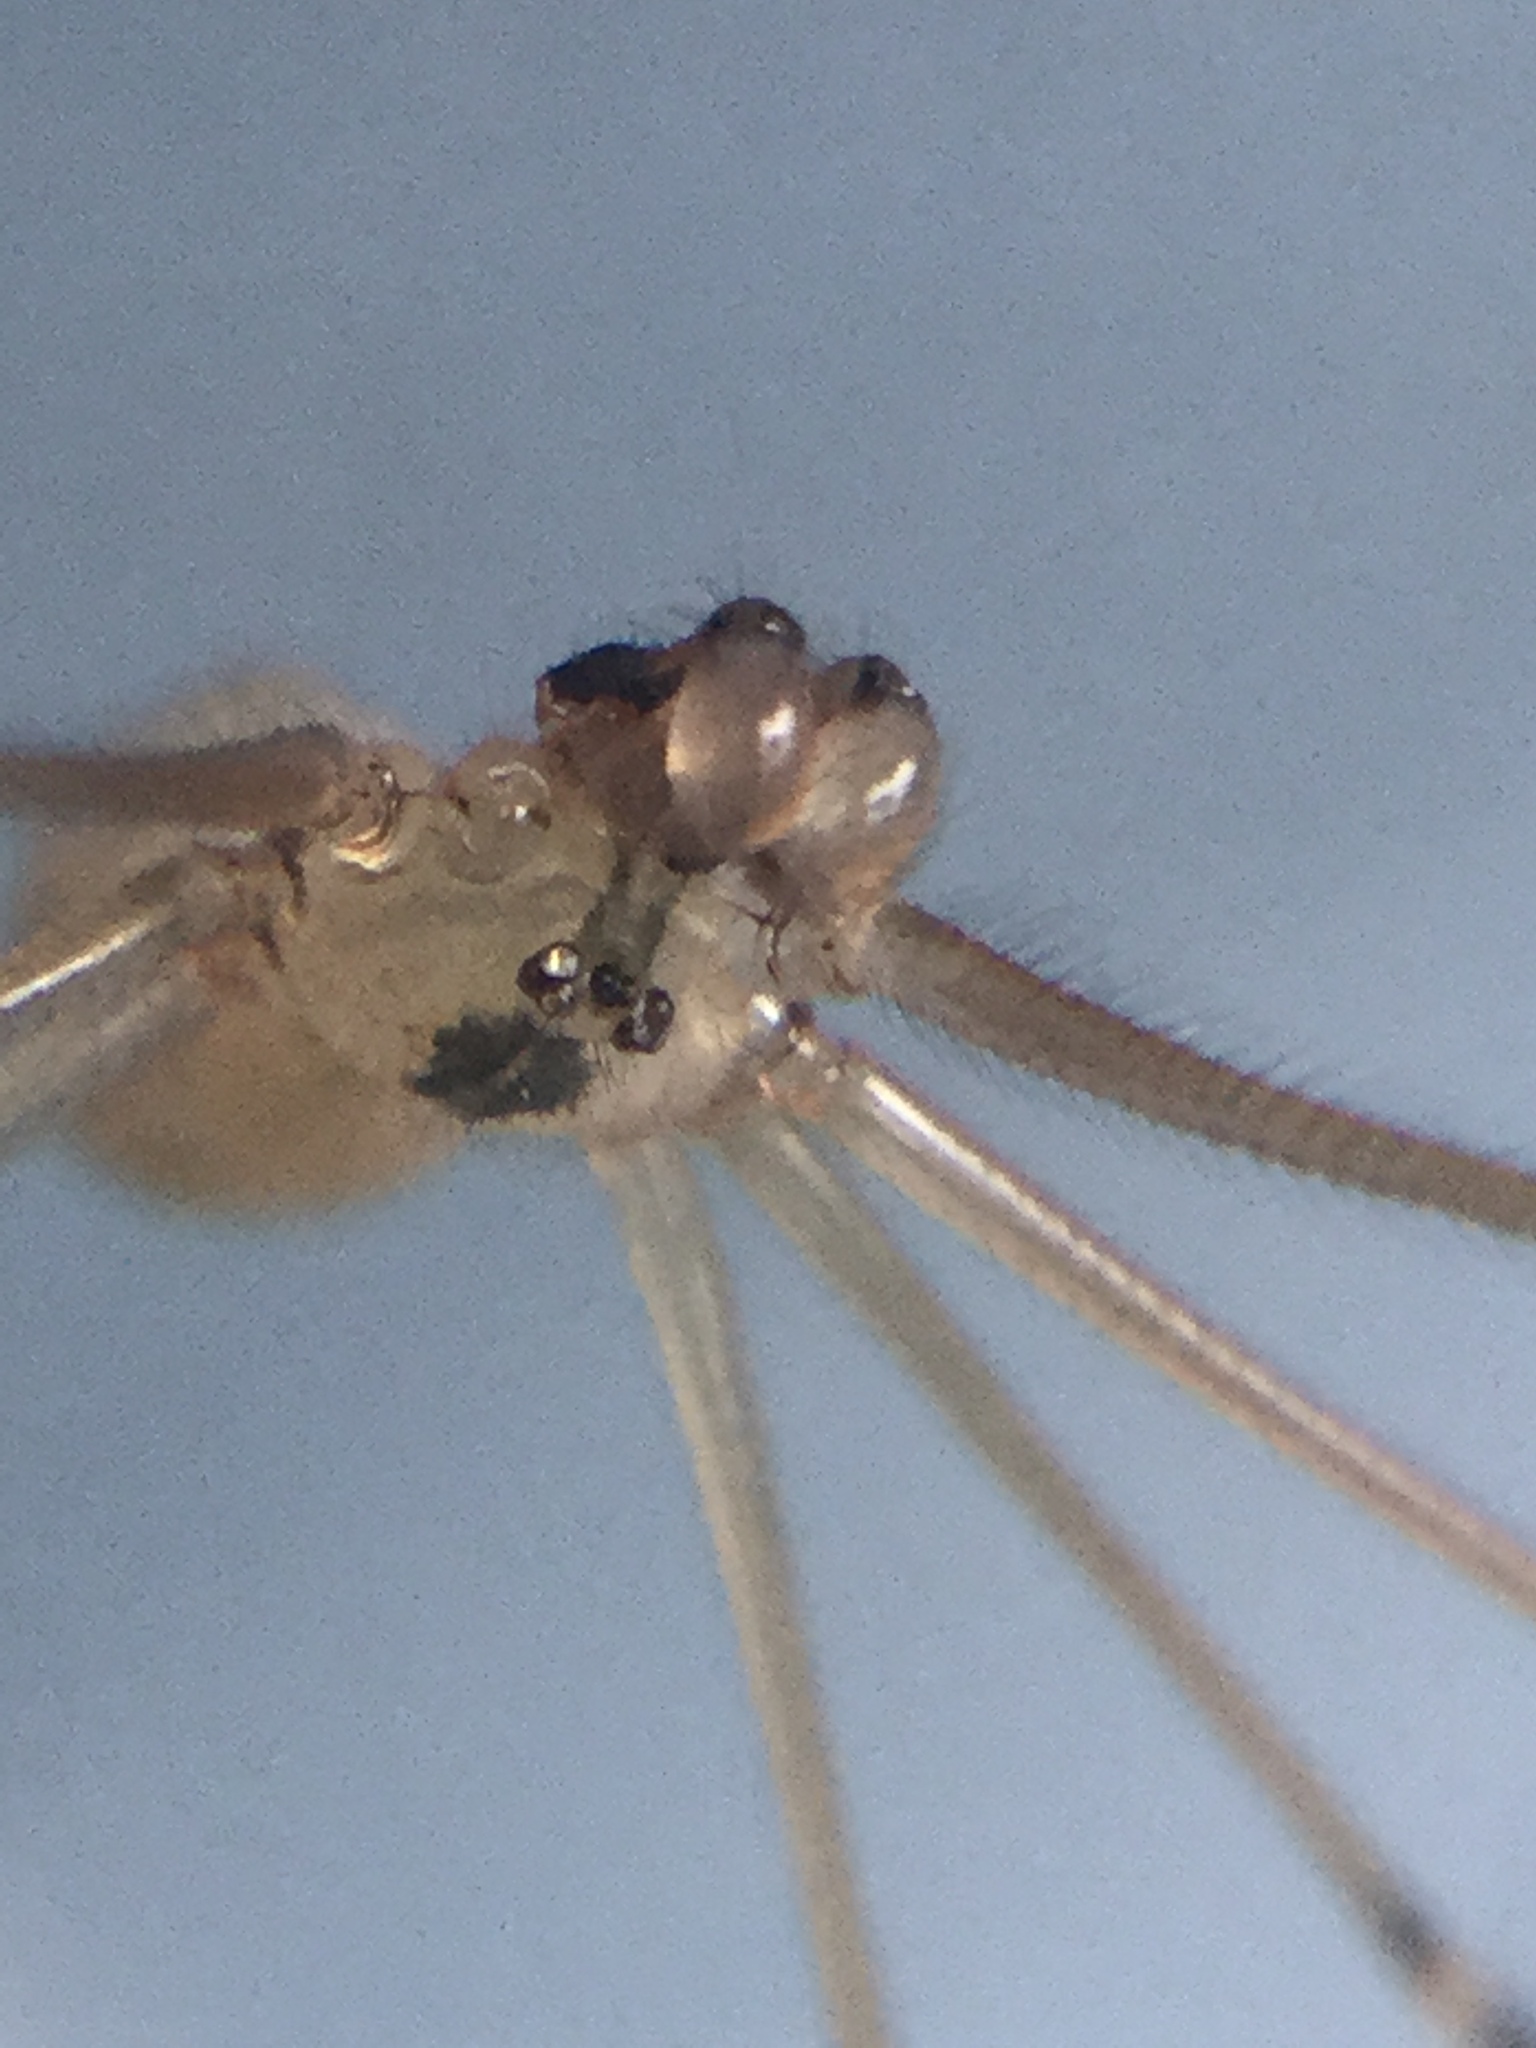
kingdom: Animalia
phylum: Arthropoda
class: Arachnida
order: Araneae
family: Pholcidae
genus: Pholcus
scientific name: Pholcus manueli
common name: Cellar spider
